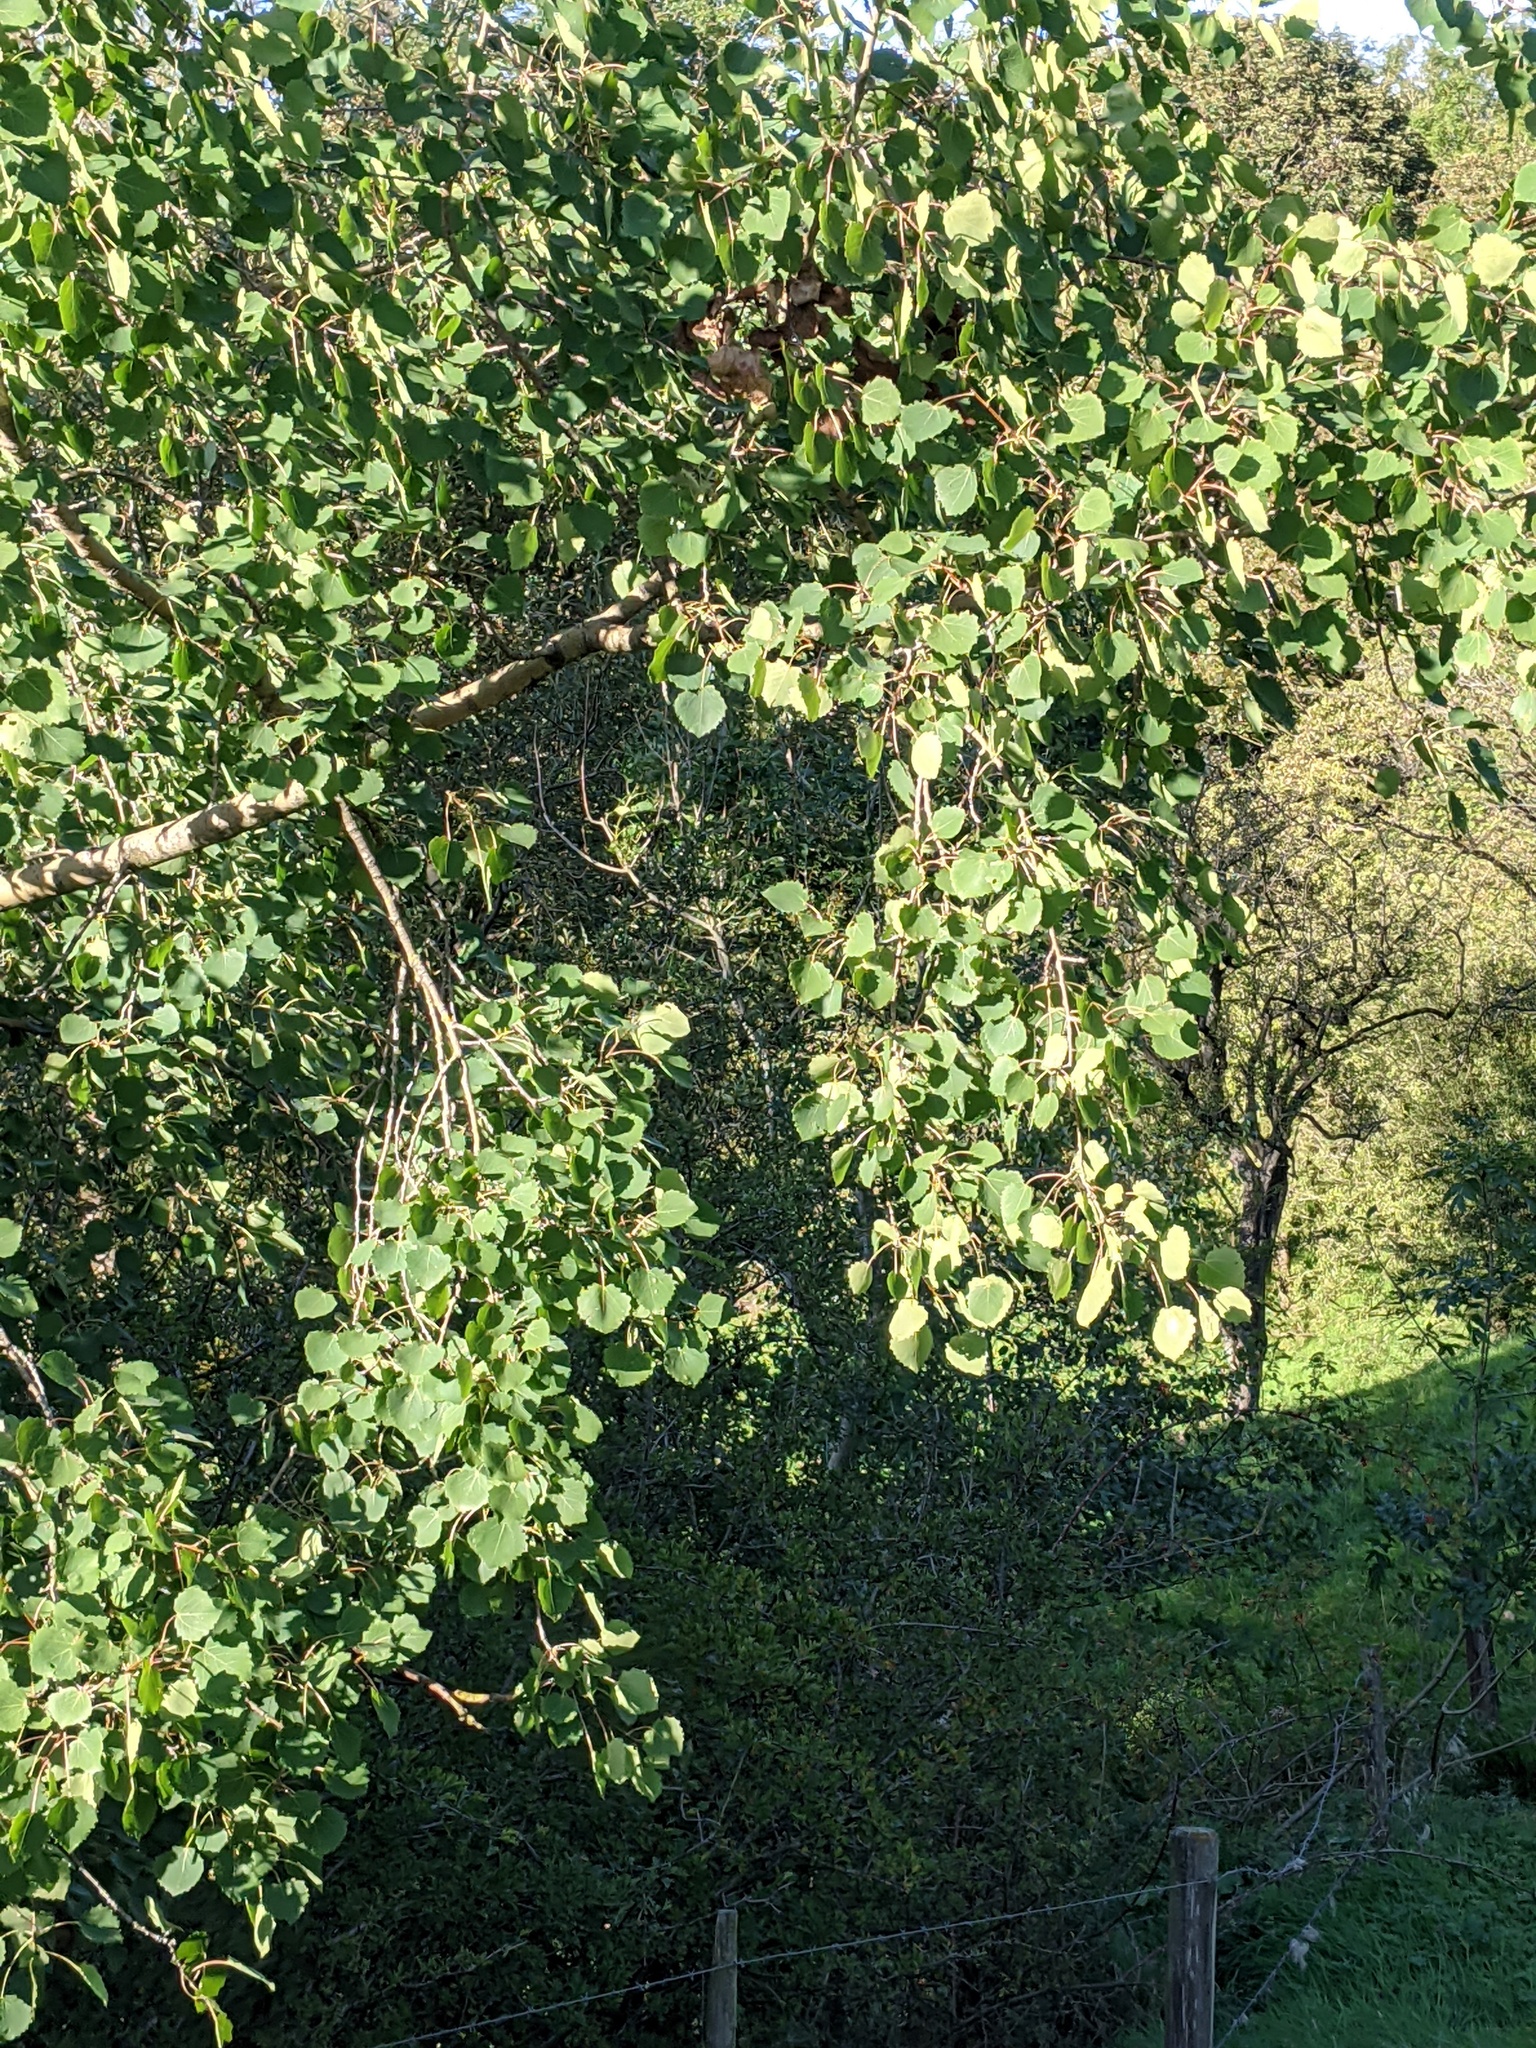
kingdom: Plantae
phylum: Tracheophyta
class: Magnoliopsida
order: Malpighiales
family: Salicaceae
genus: Populus
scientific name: Populus tremula
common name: European aspen
